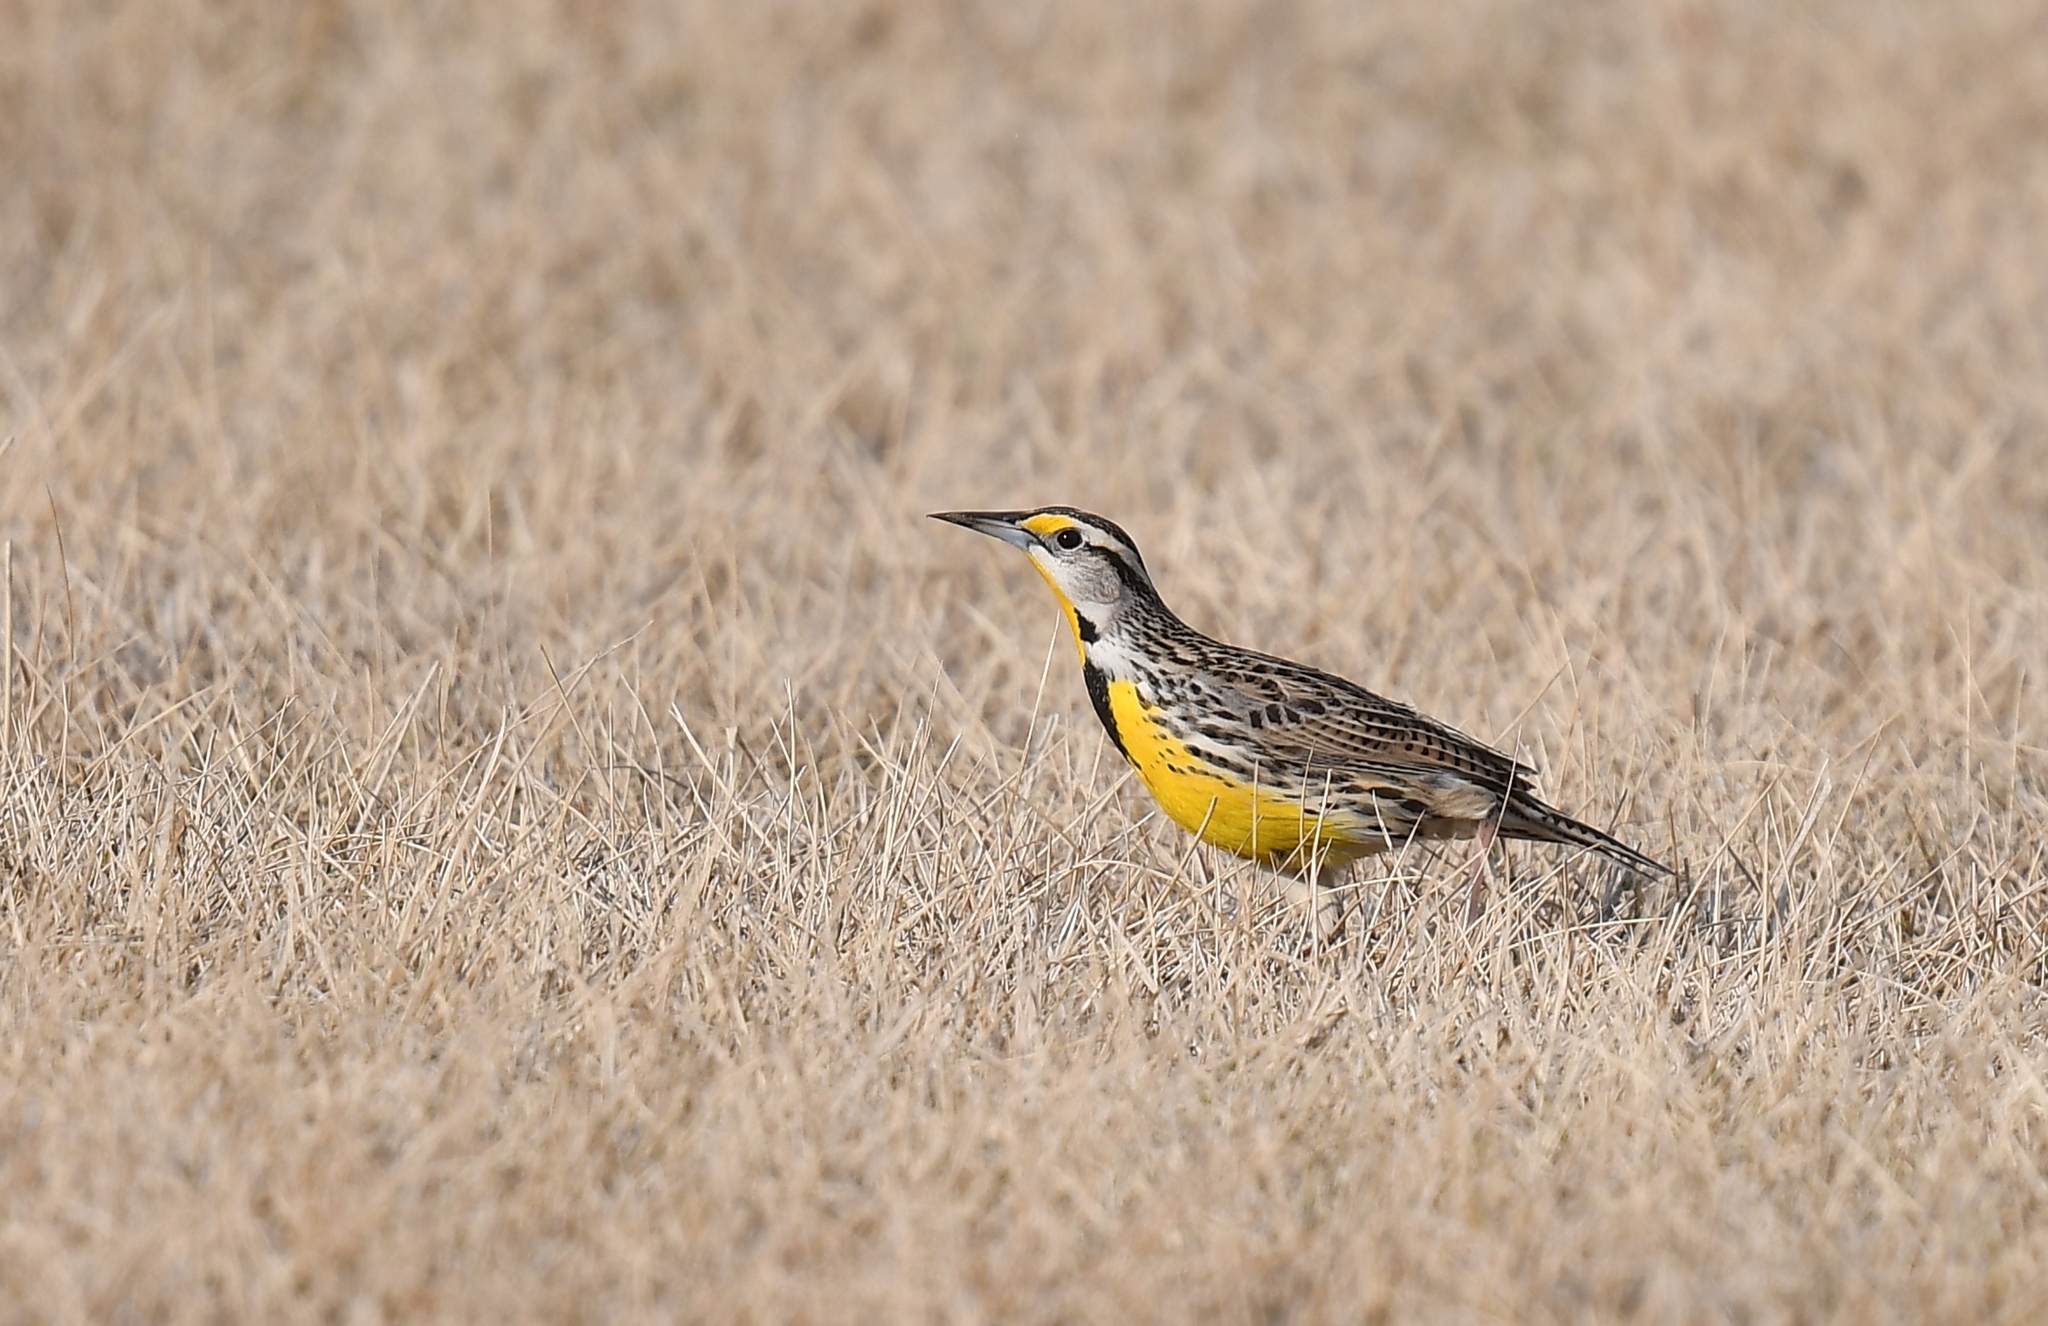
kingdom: Animalia
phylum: Chordata
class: Aves
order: Passeriformes
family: Icteridae
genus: Sturnella
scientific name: Sturnella magna
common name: Eastern meadowlark
